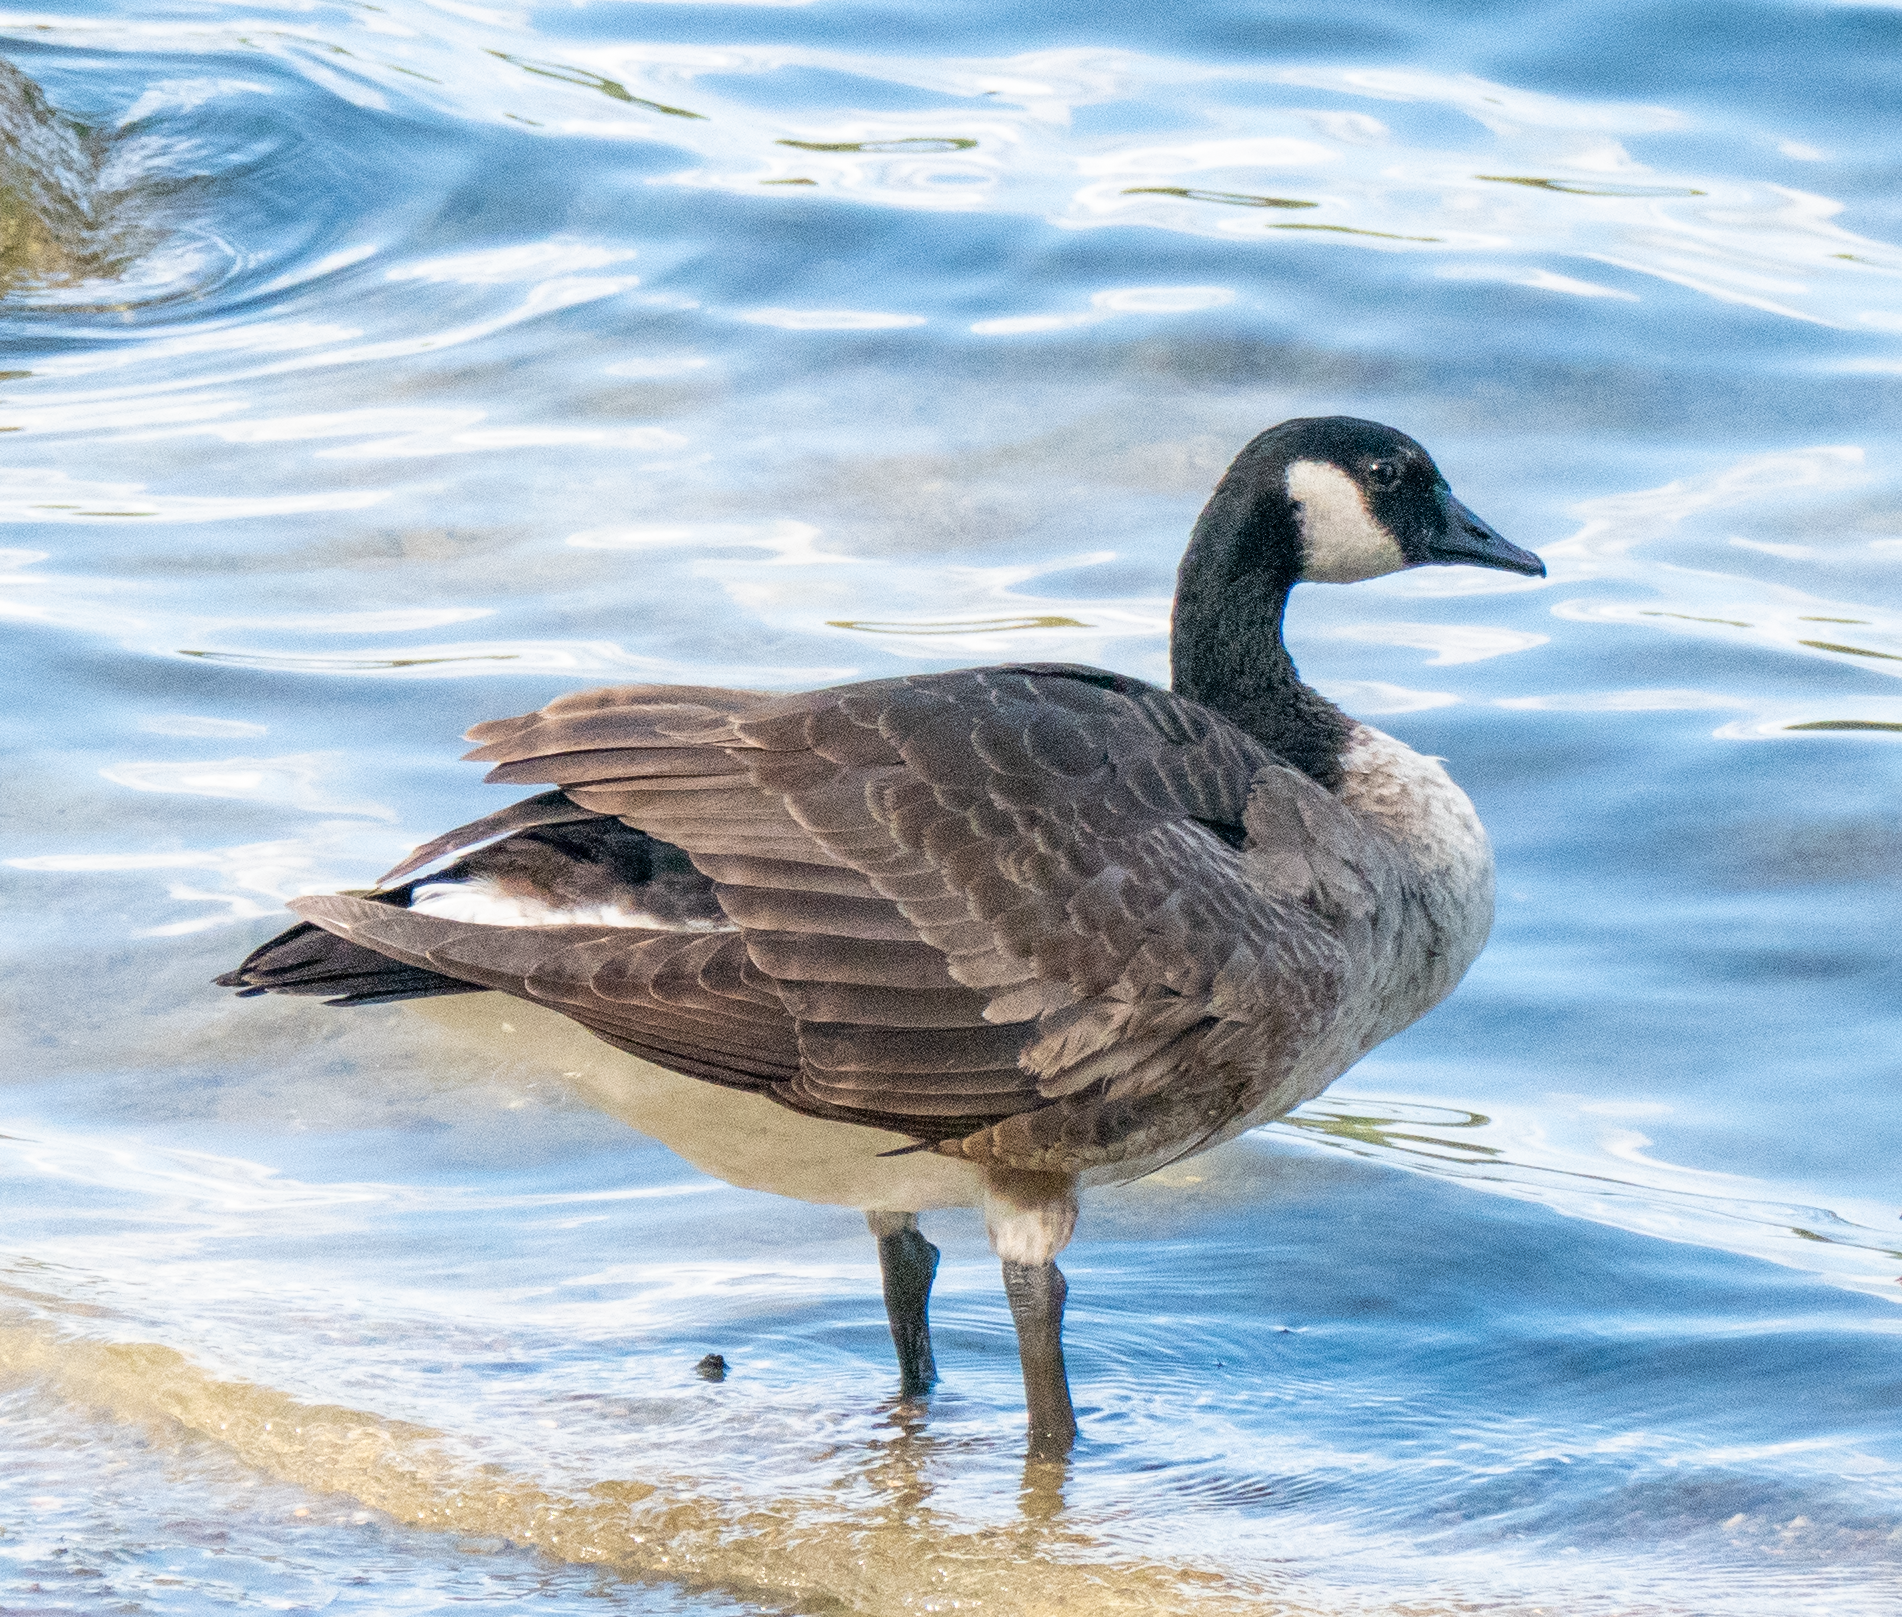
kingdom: Animalia
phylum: Chordata
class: Aves
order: Anseriformes
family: Anatidae
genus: Branta
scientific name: Branta canadensis
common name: Canada goose
